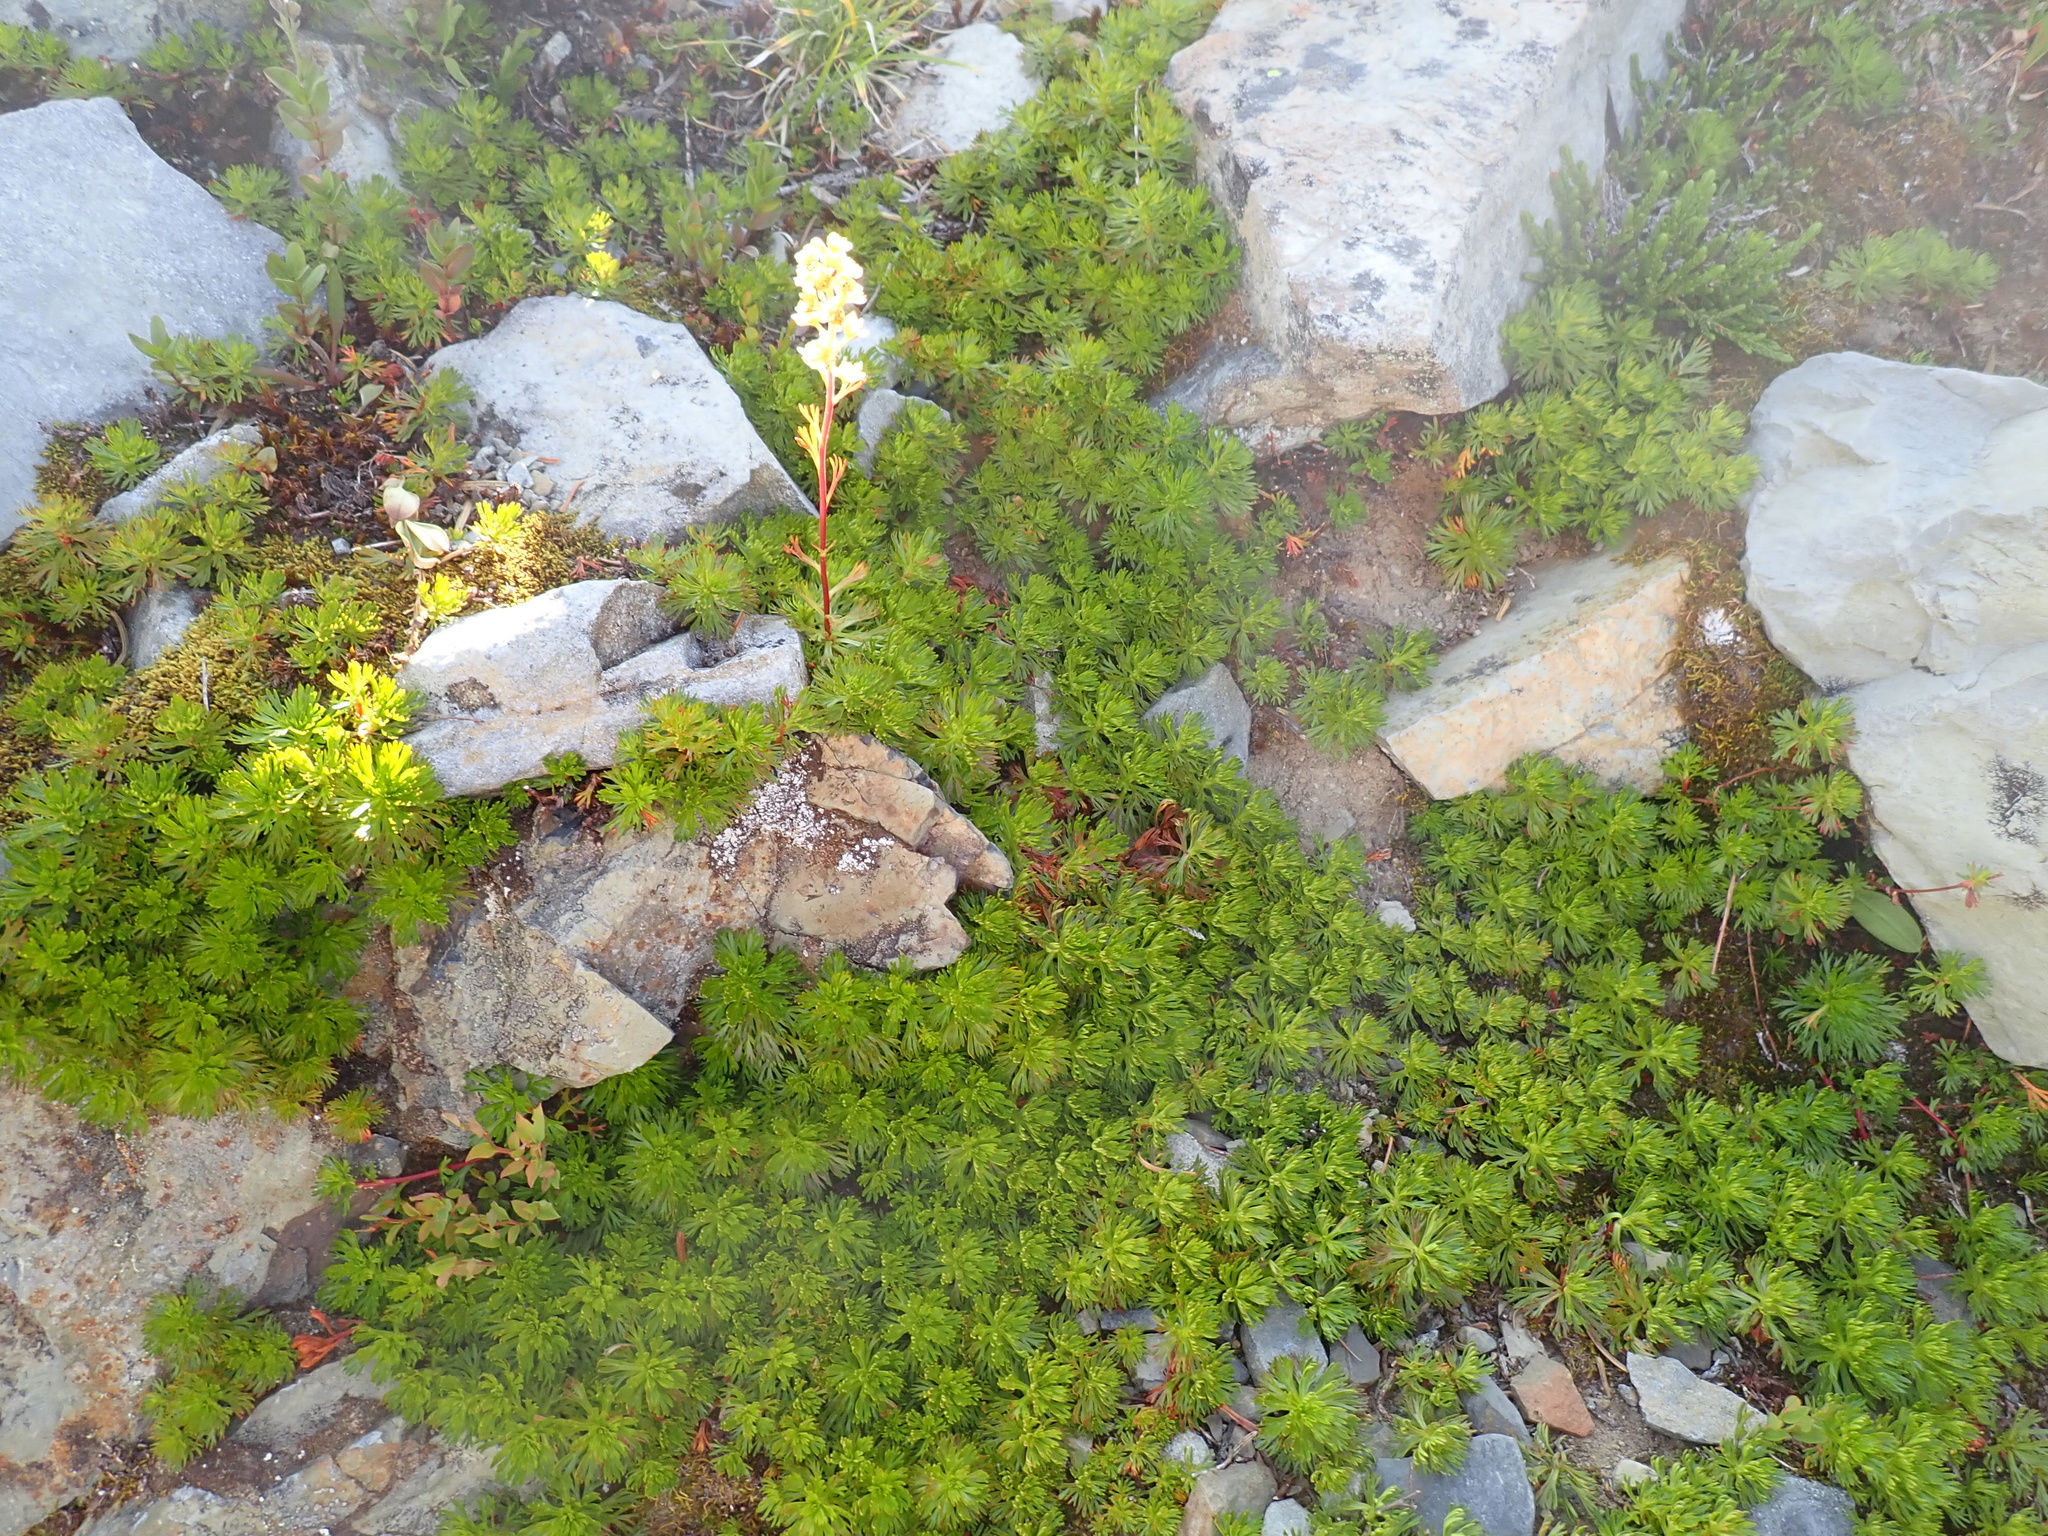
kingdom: Plantae
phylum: Tracheophyta
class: Magnoliopsida
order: Rosales
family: Rosaceae
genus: Luetkea
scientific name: Luetkea pectinata
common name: Partridgefoot
